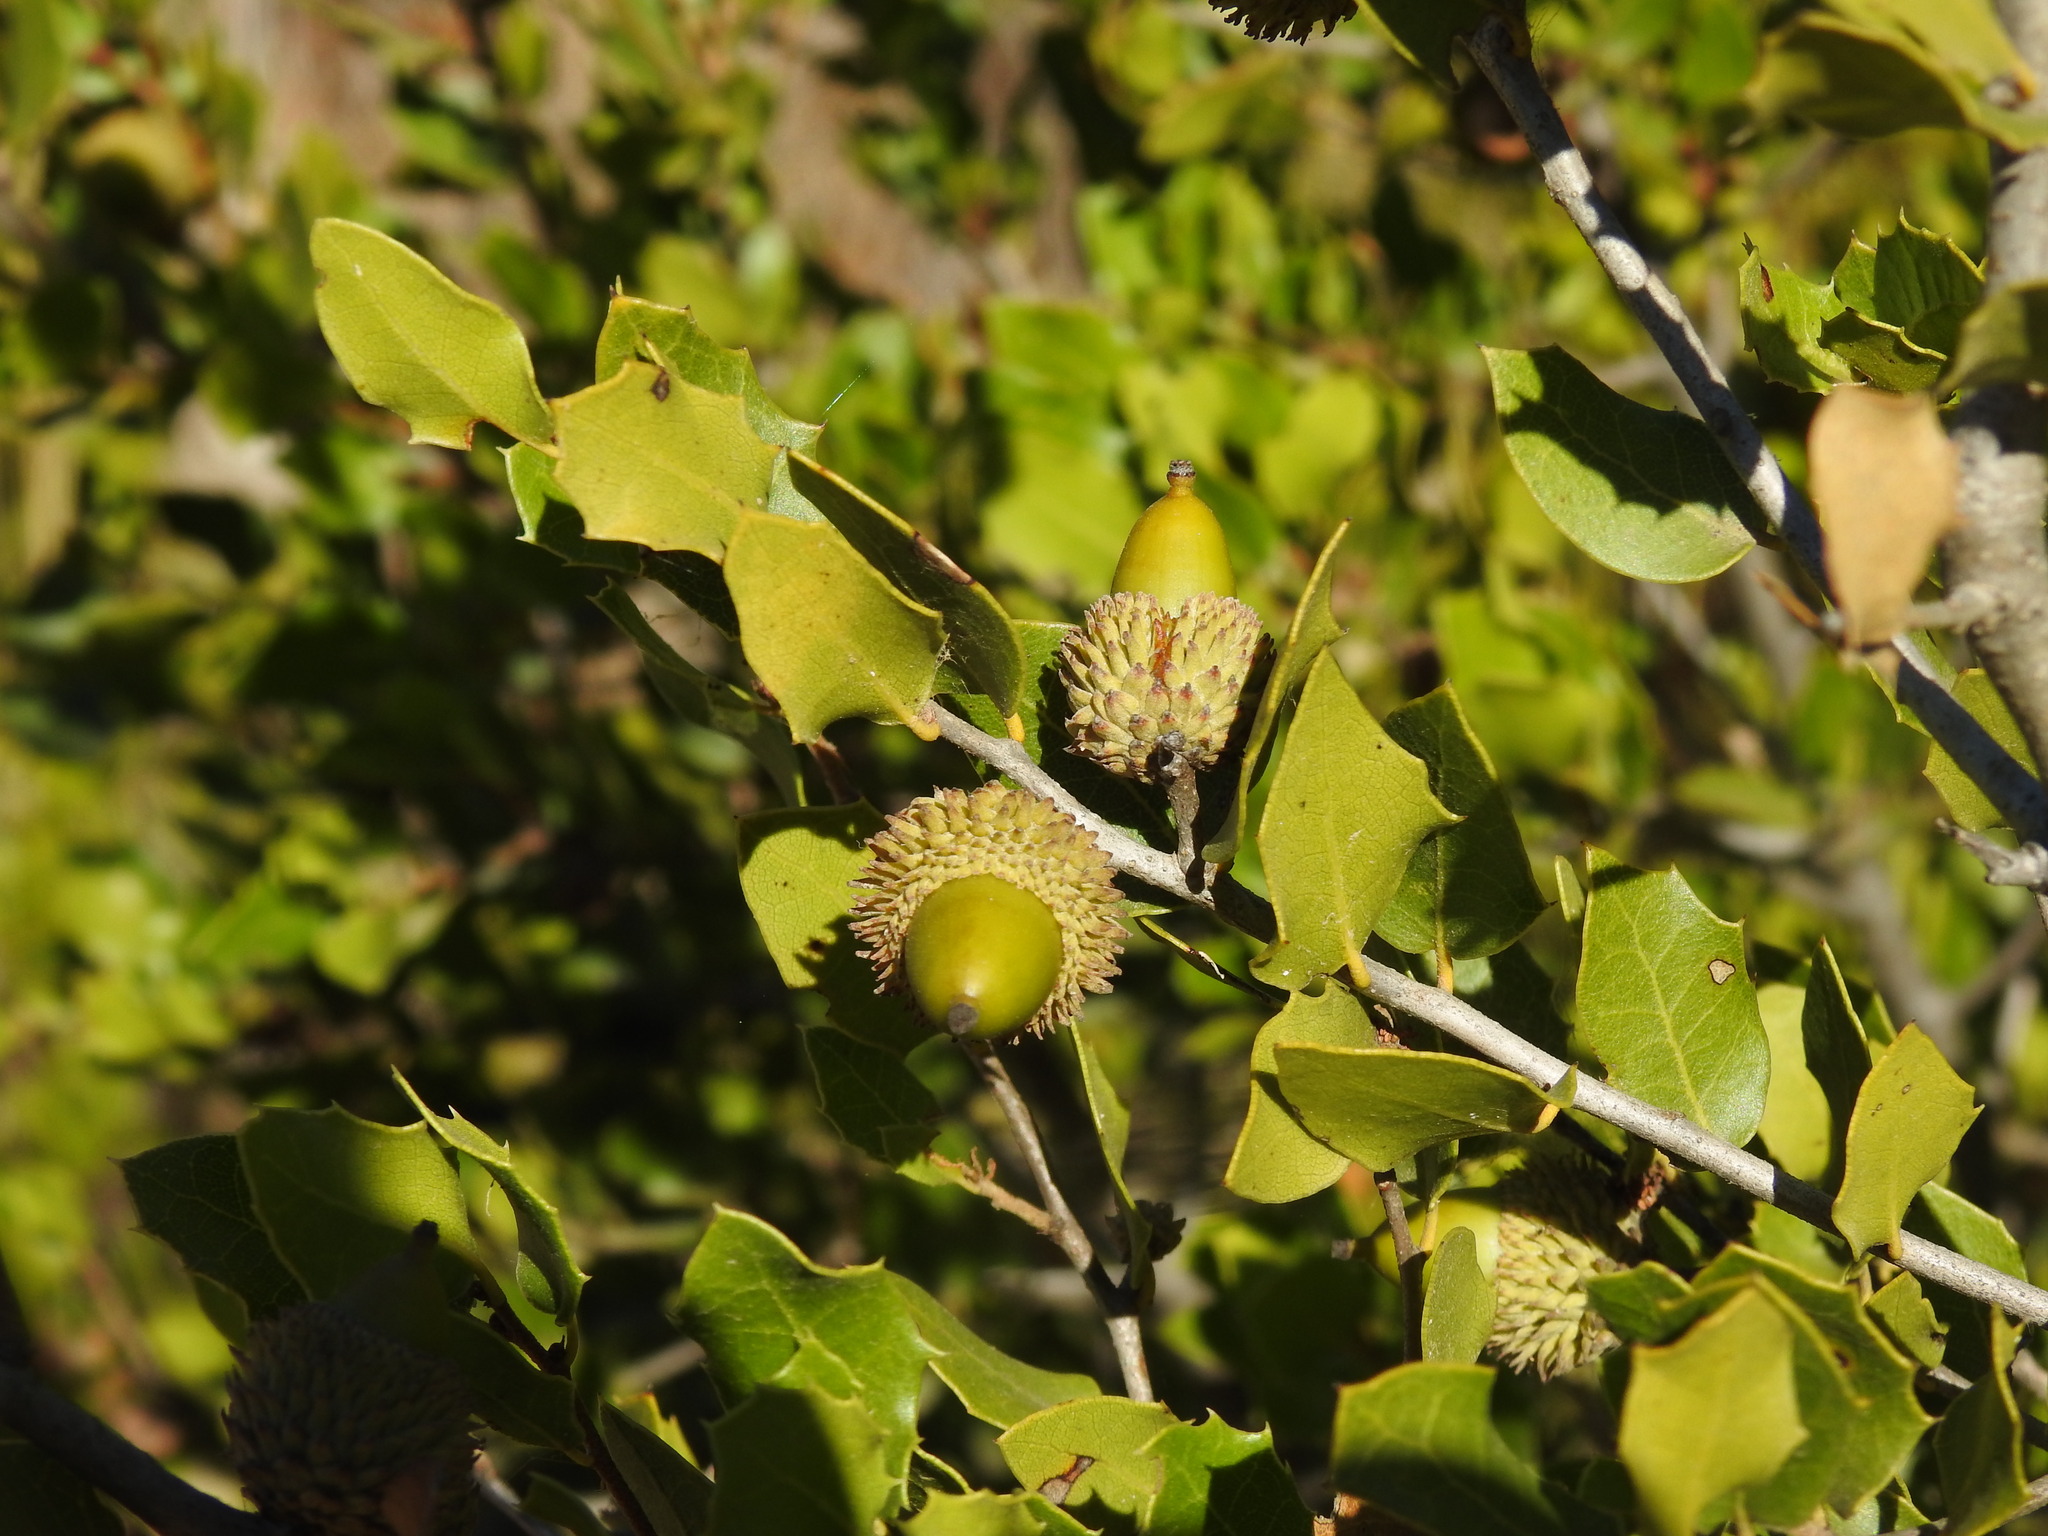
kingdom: Plantae
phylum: Tracheophyta
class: Magnoliopsida
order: Fagales
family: Fagaceae
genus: Quercus
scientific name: Quercus coccifera
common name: Kermes oak
